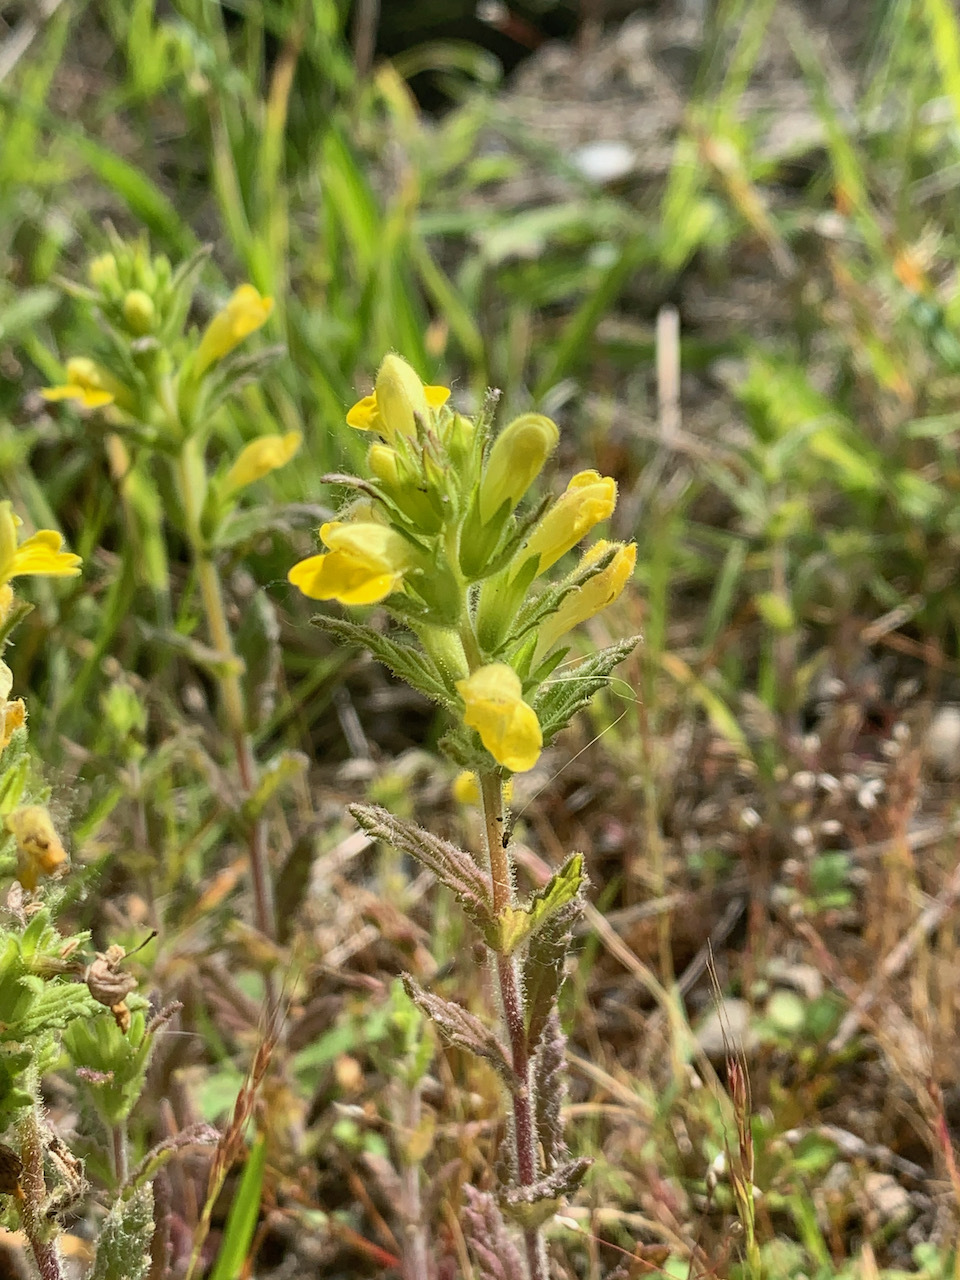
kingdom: Plantae
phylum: Tracheophyta
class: Magnoliopsida
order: Lamiales
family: Orobanchaceae
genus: Bellardia
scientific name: Bellardia viscosa
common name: Sticky parentucellia
